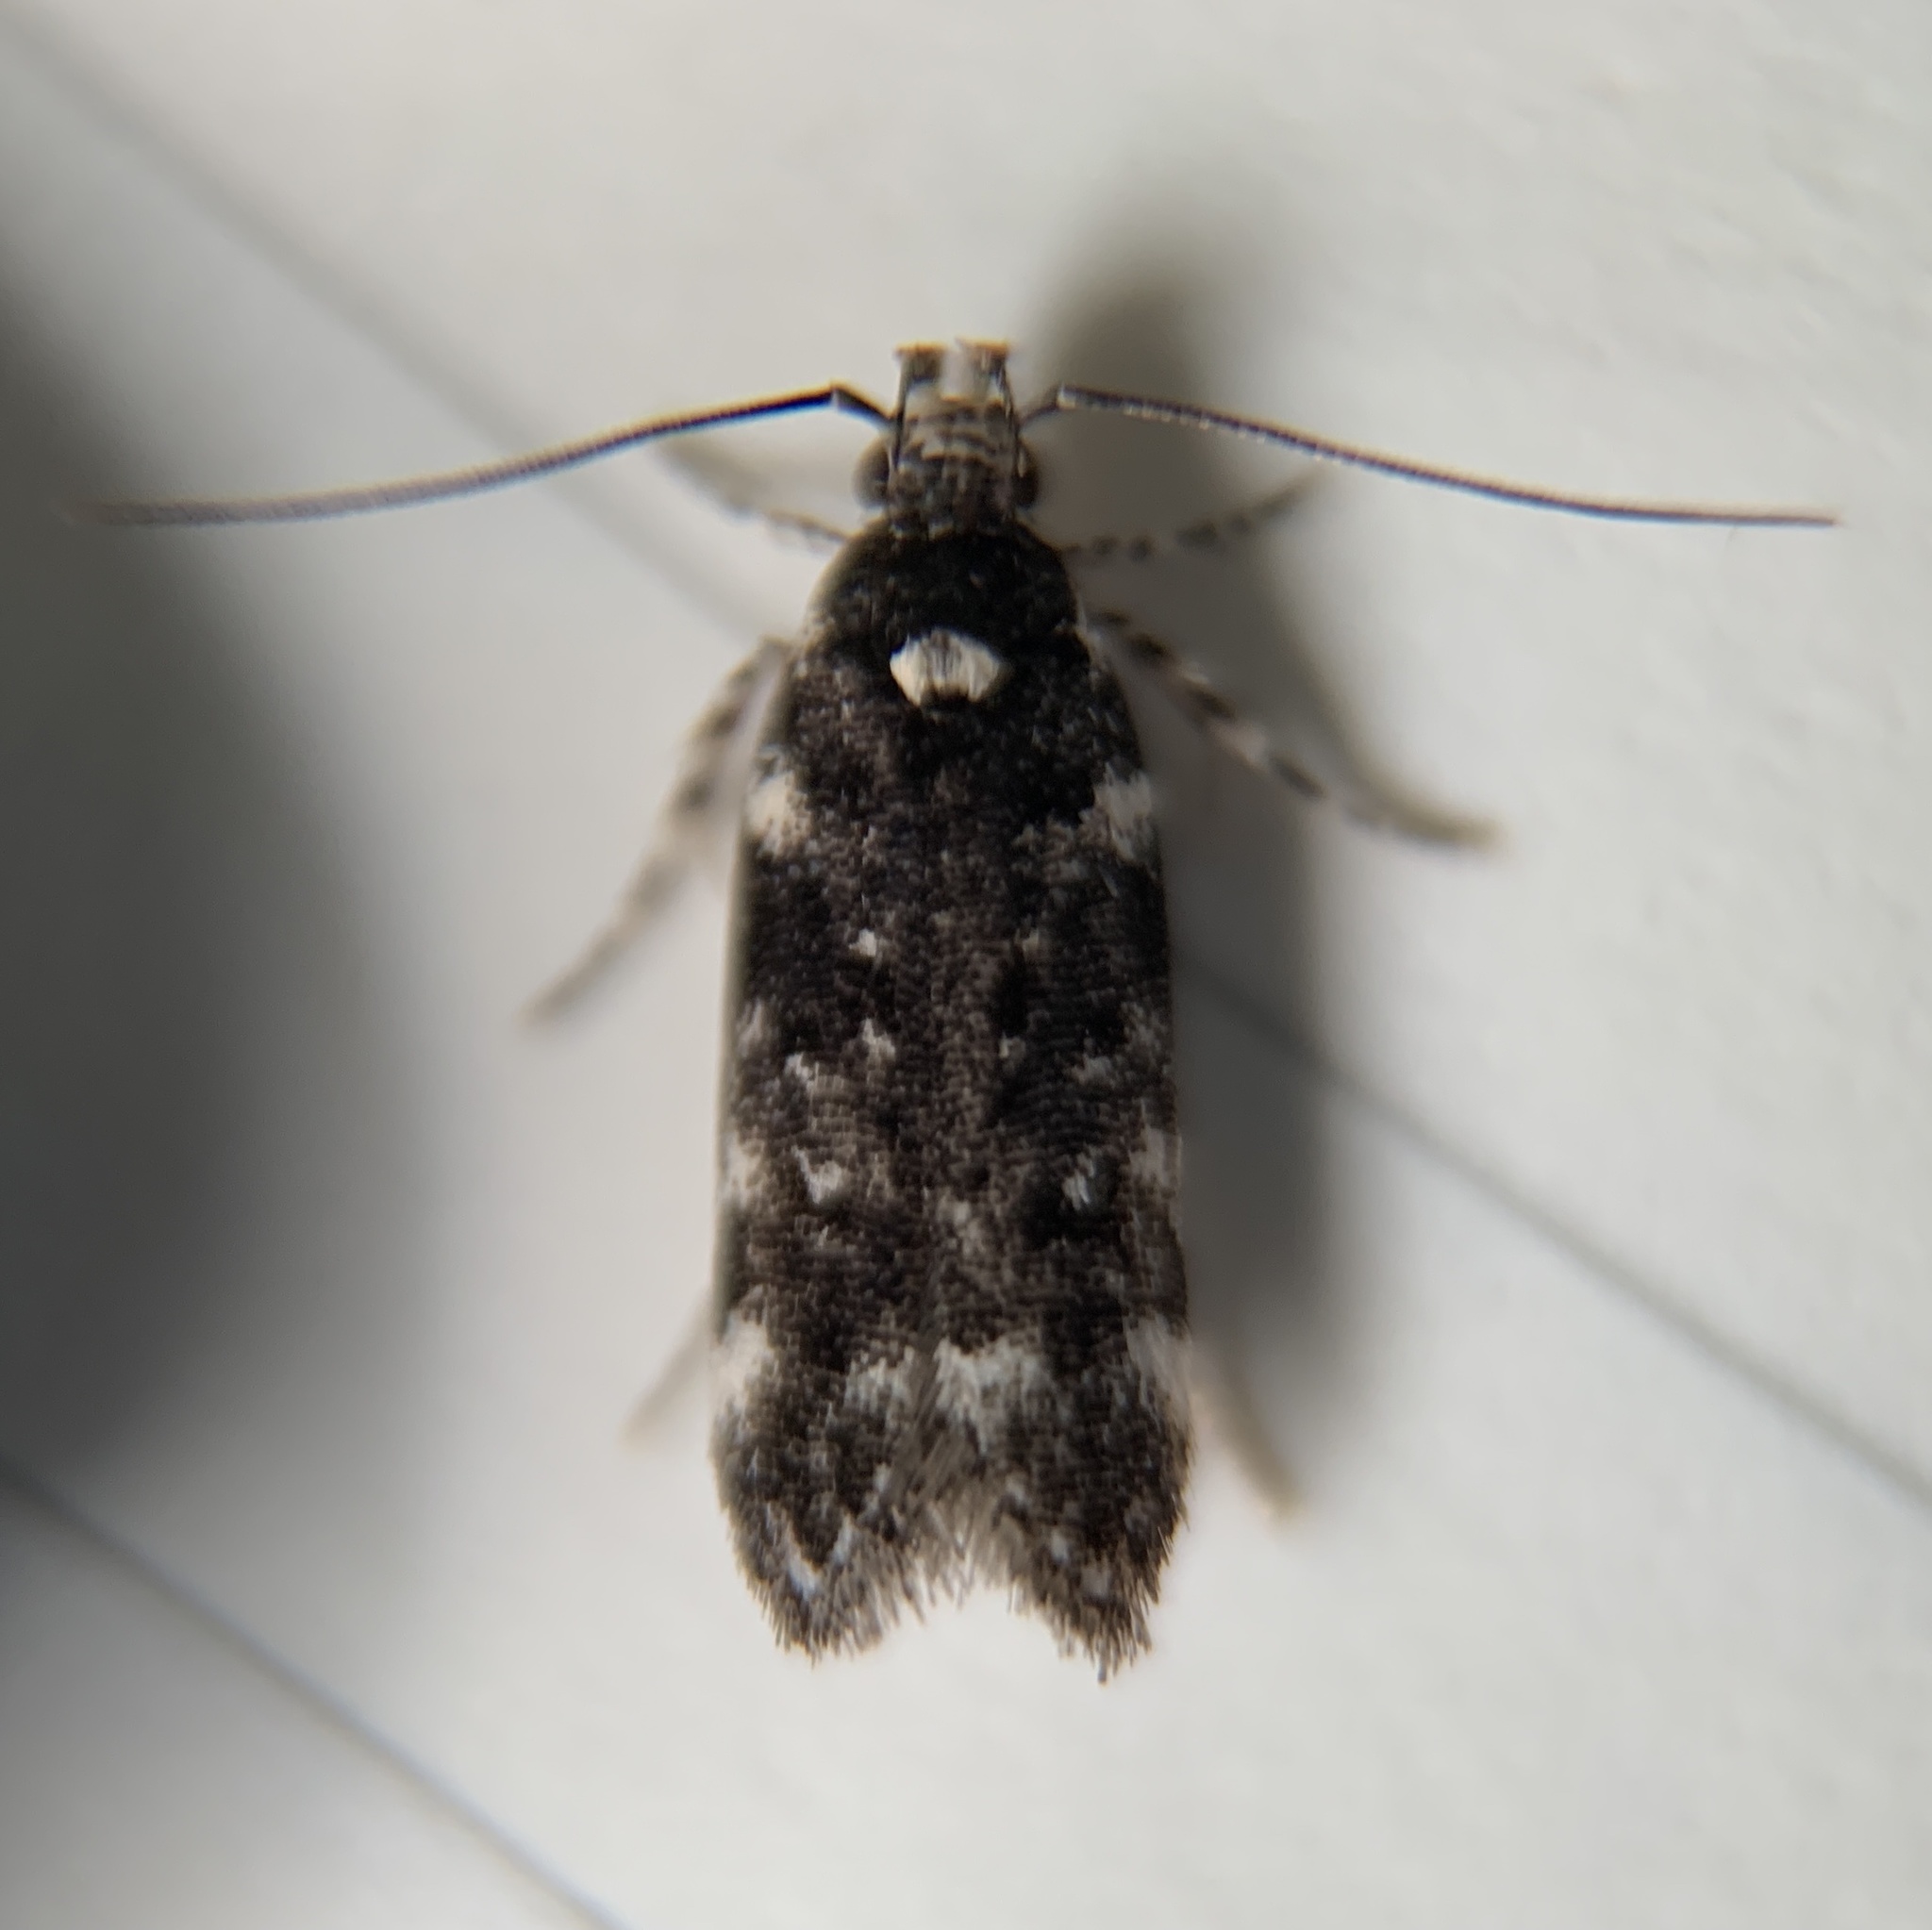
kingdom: Animalia
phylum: Arthropoda
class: Insecta
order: Lepidoptera
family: Gelechiidae
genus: Chionodes
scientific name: Chionodes bicostomaculella
